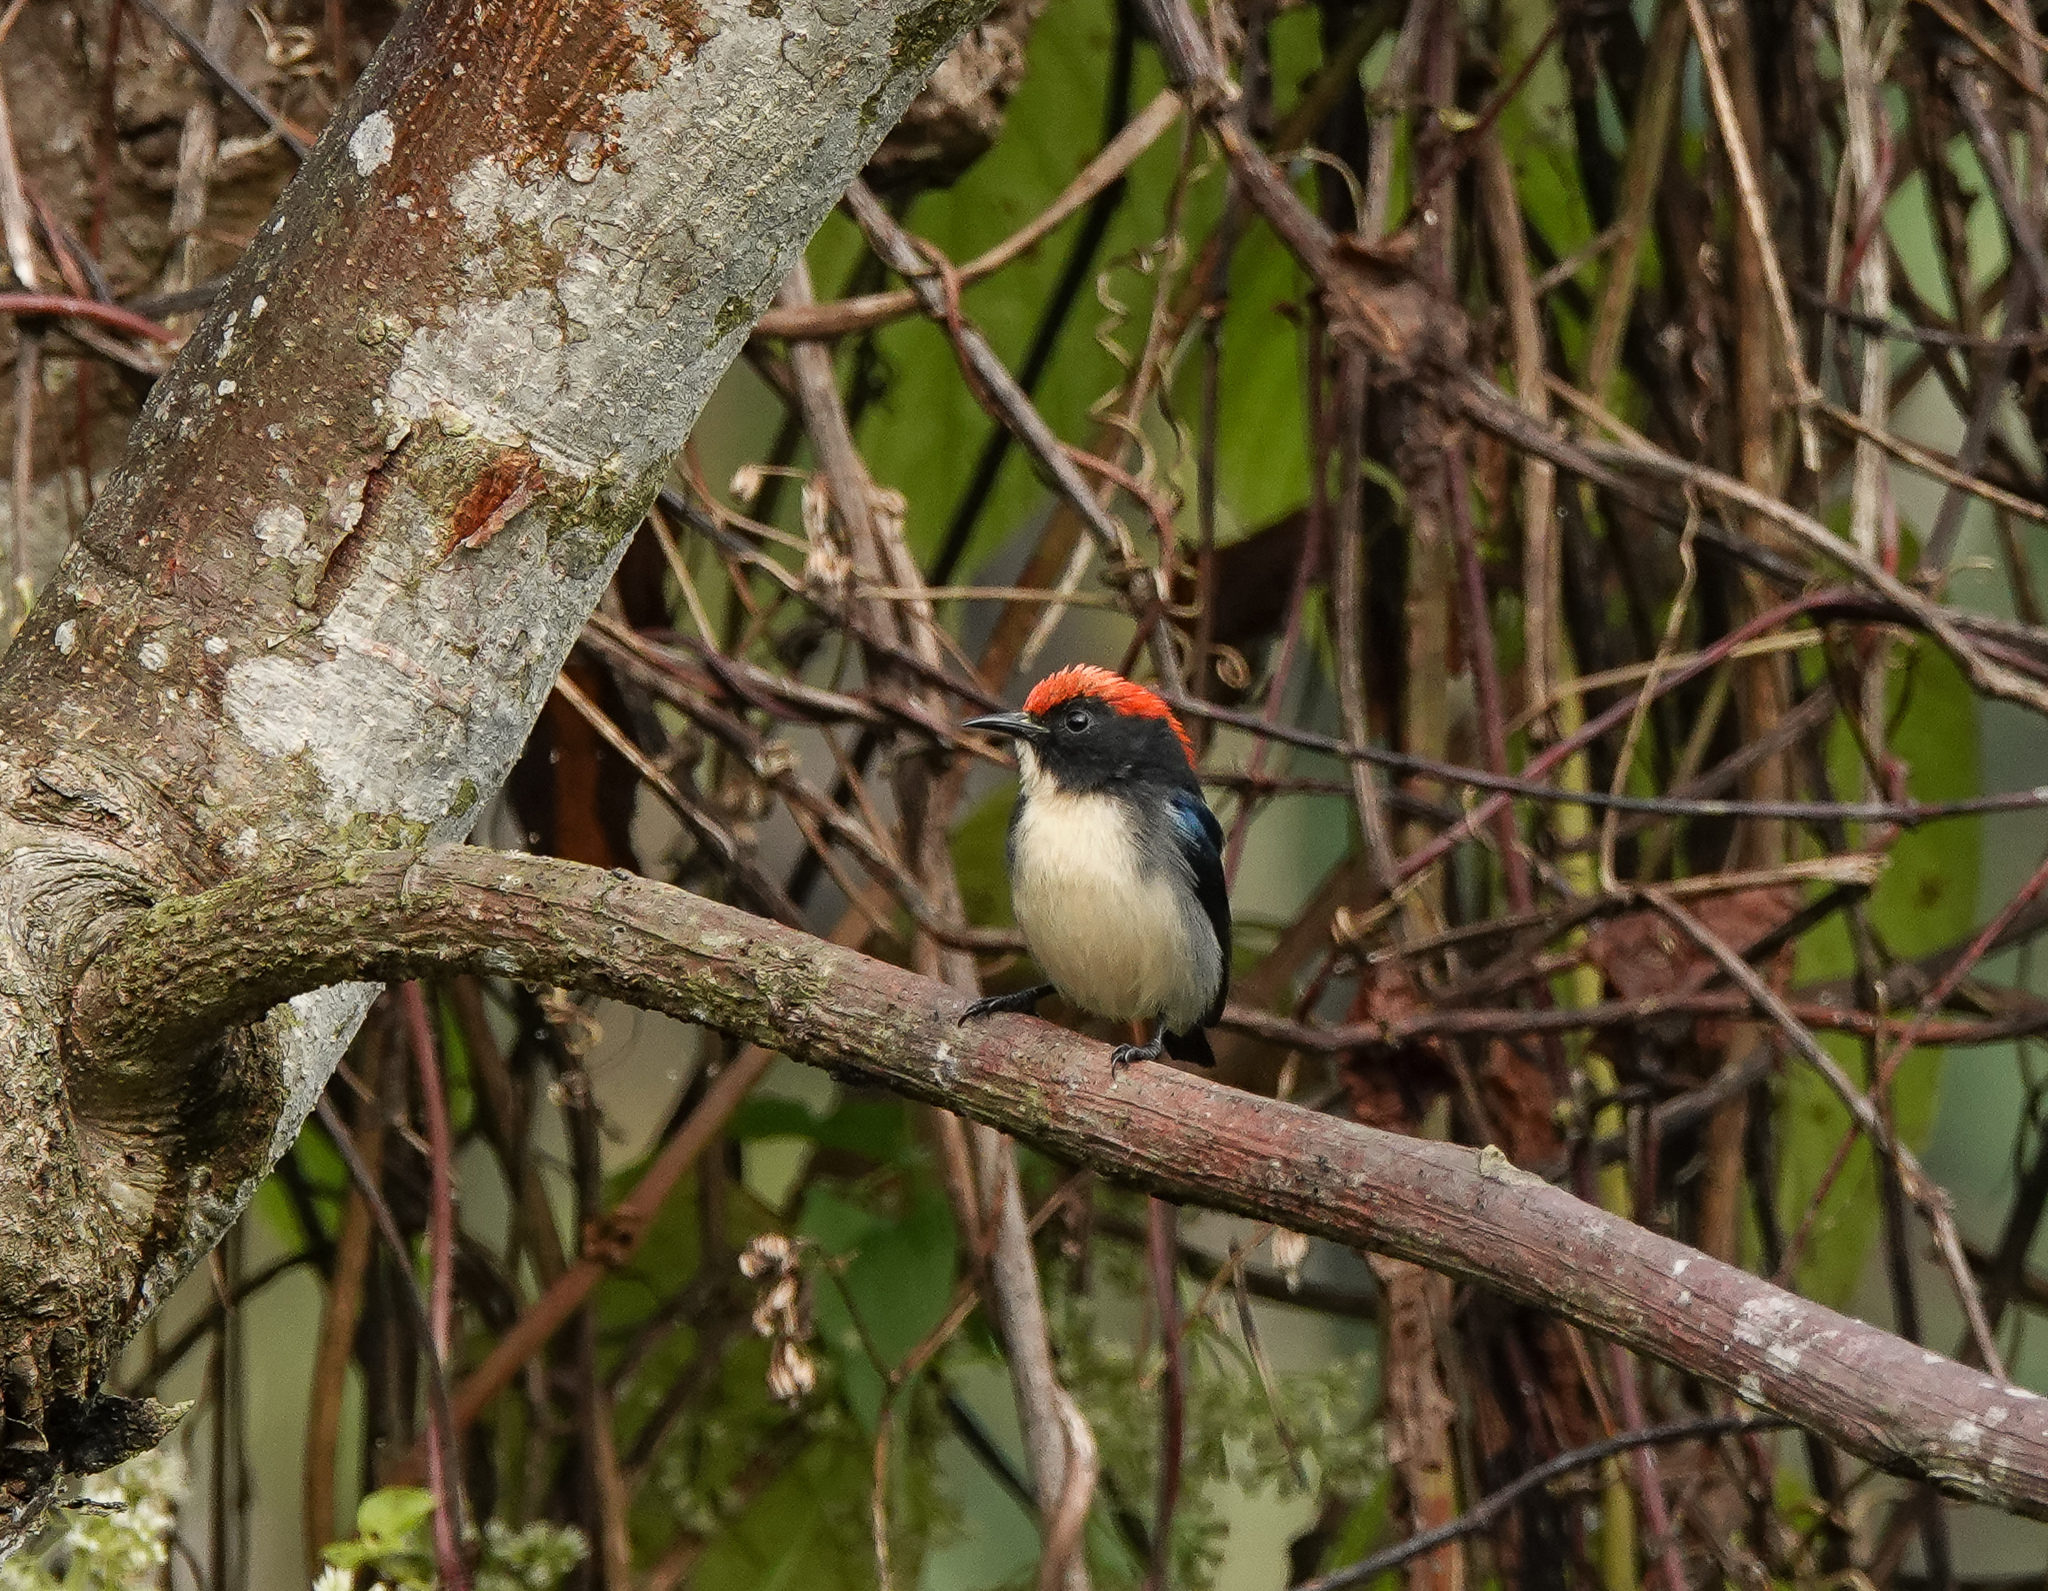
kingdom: Animalia
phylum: Chordata
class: Aves
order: Passeriformes
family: Dicaeidae
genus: Dicaeum
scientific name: Dicaeum cruentatum
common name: Scarlet-backed flowerpecker
